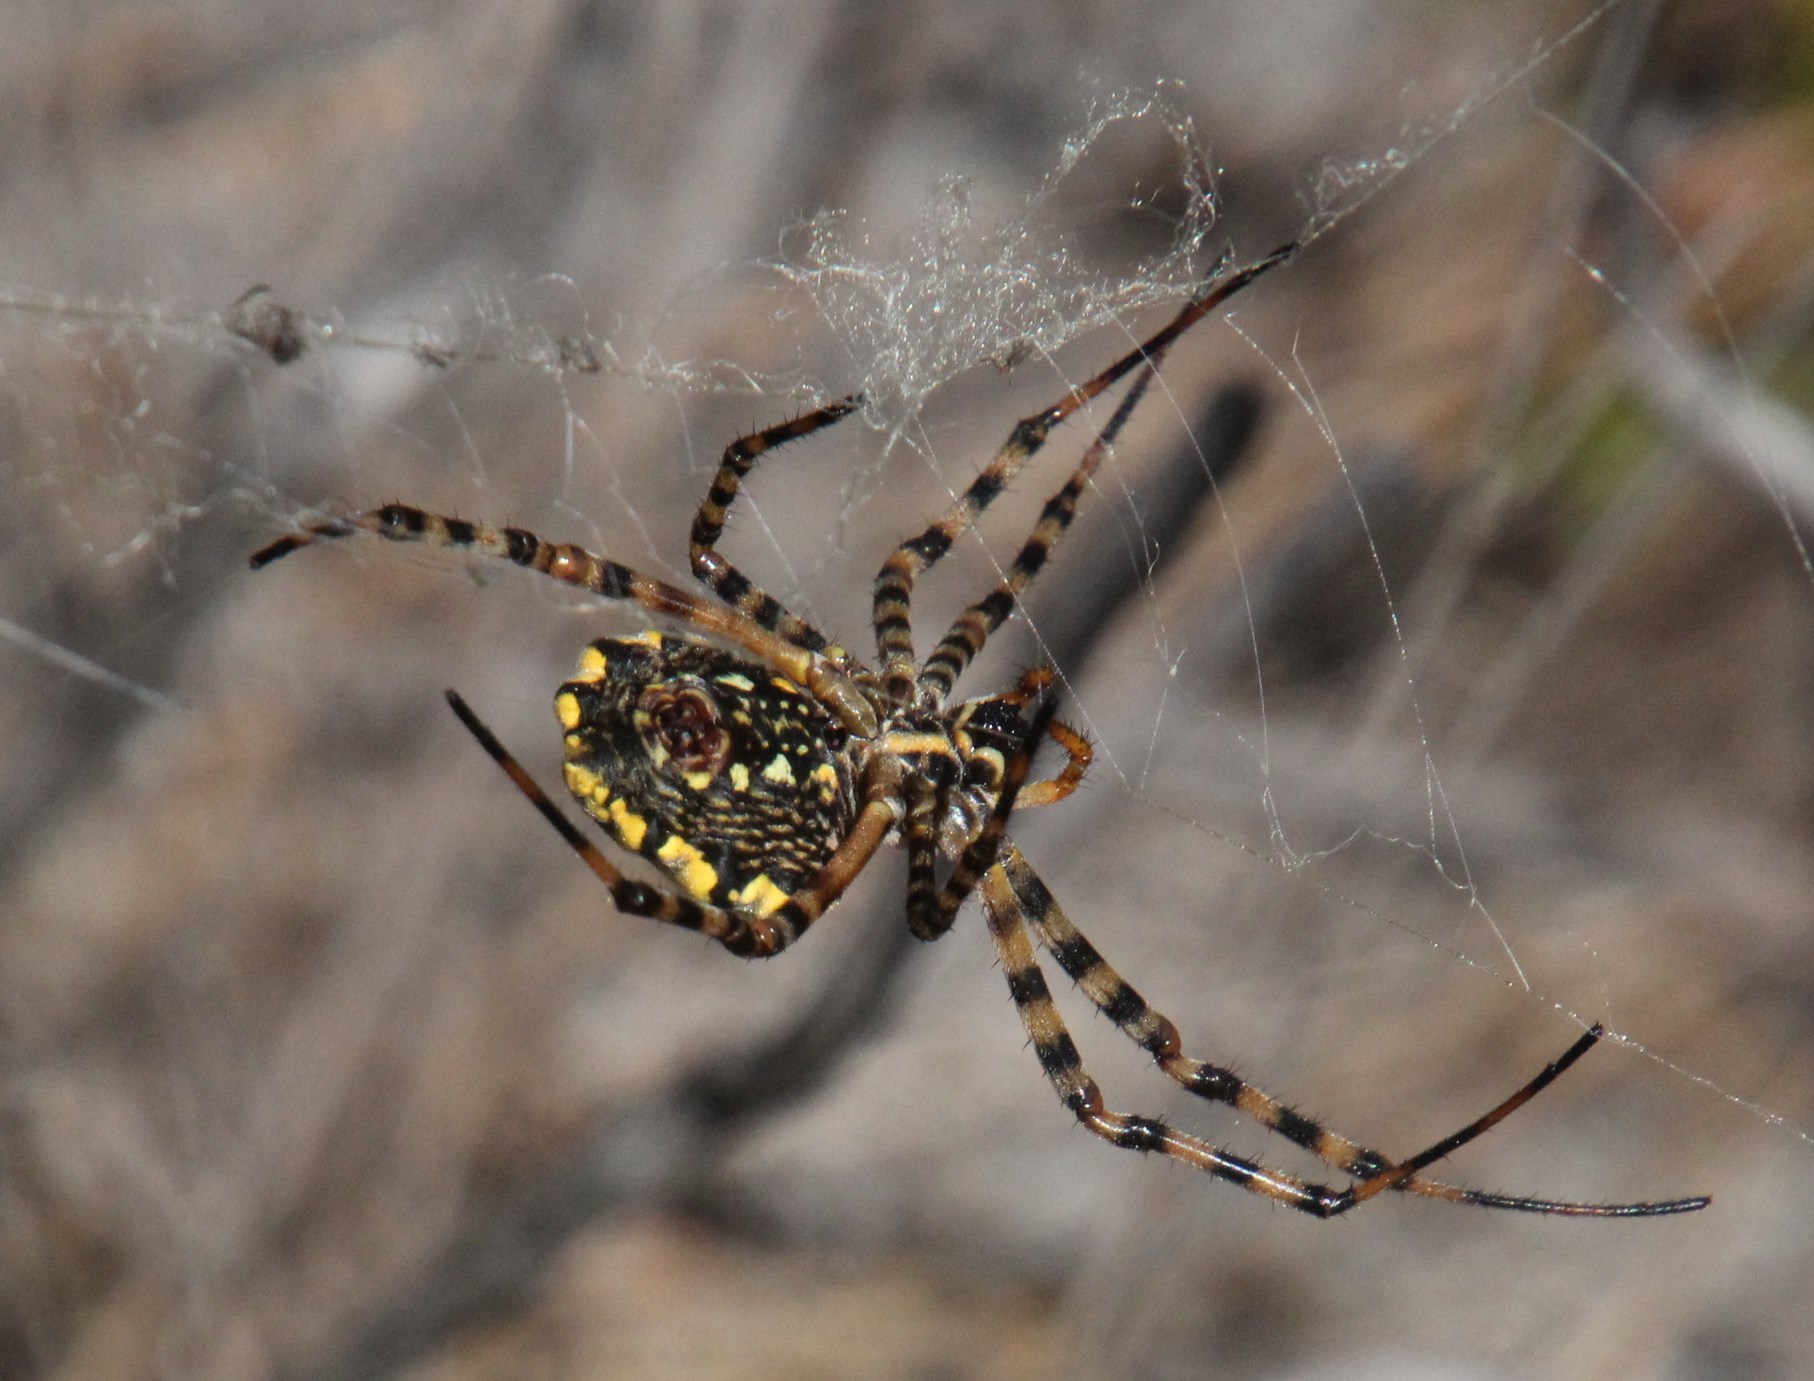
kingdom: Animalia
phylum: Arthropoda
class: Arachnida
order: Araneae
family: Araneidae
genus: Argiope
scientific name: Argiope australis
